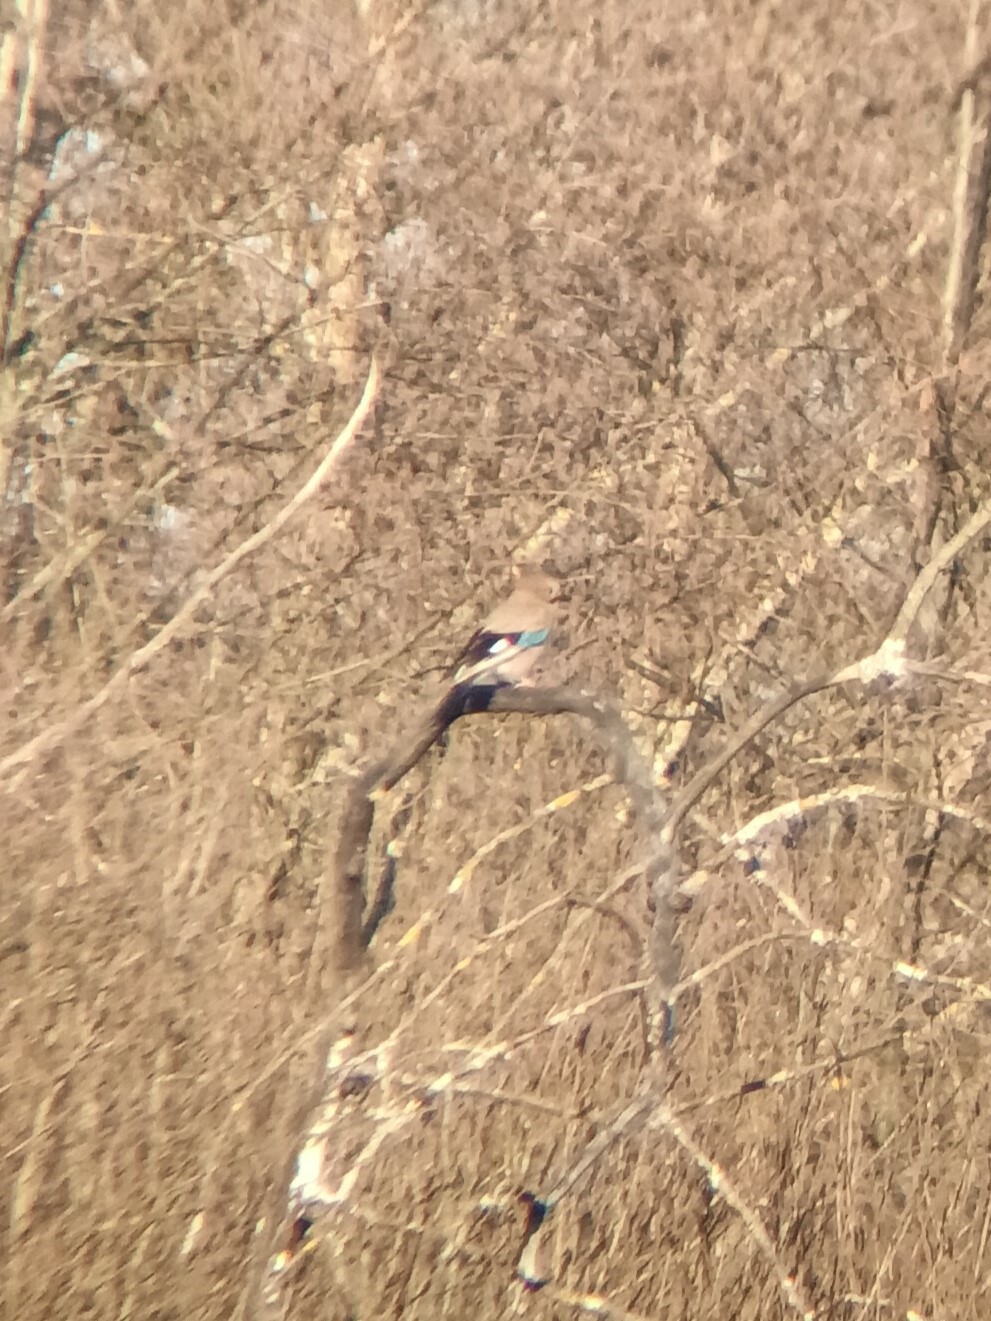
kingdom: Animalia
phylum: Chordata
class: Aves
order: Passeriformes
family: Corvidae
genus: Garrulus
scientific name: Garrulus glandarius
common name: Eurasian jay
